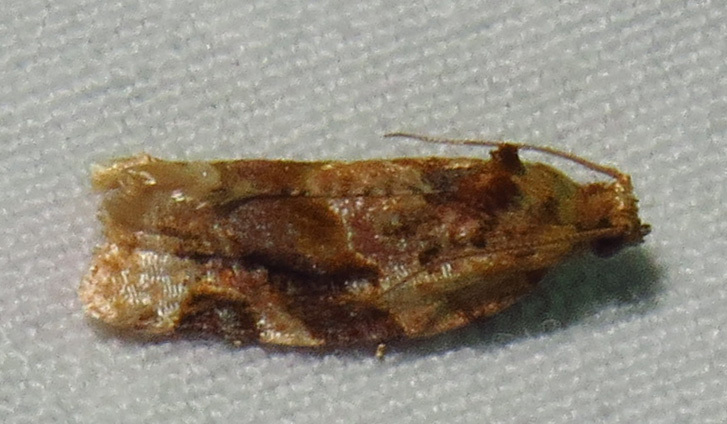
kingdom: Animalia
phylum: Arthropoda
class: Insecta
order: Lepidoptera
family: Tortricidae
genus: Argyrotaenia
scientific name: Argyrotaenia velutinana
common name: Red-banded leafroller moth
